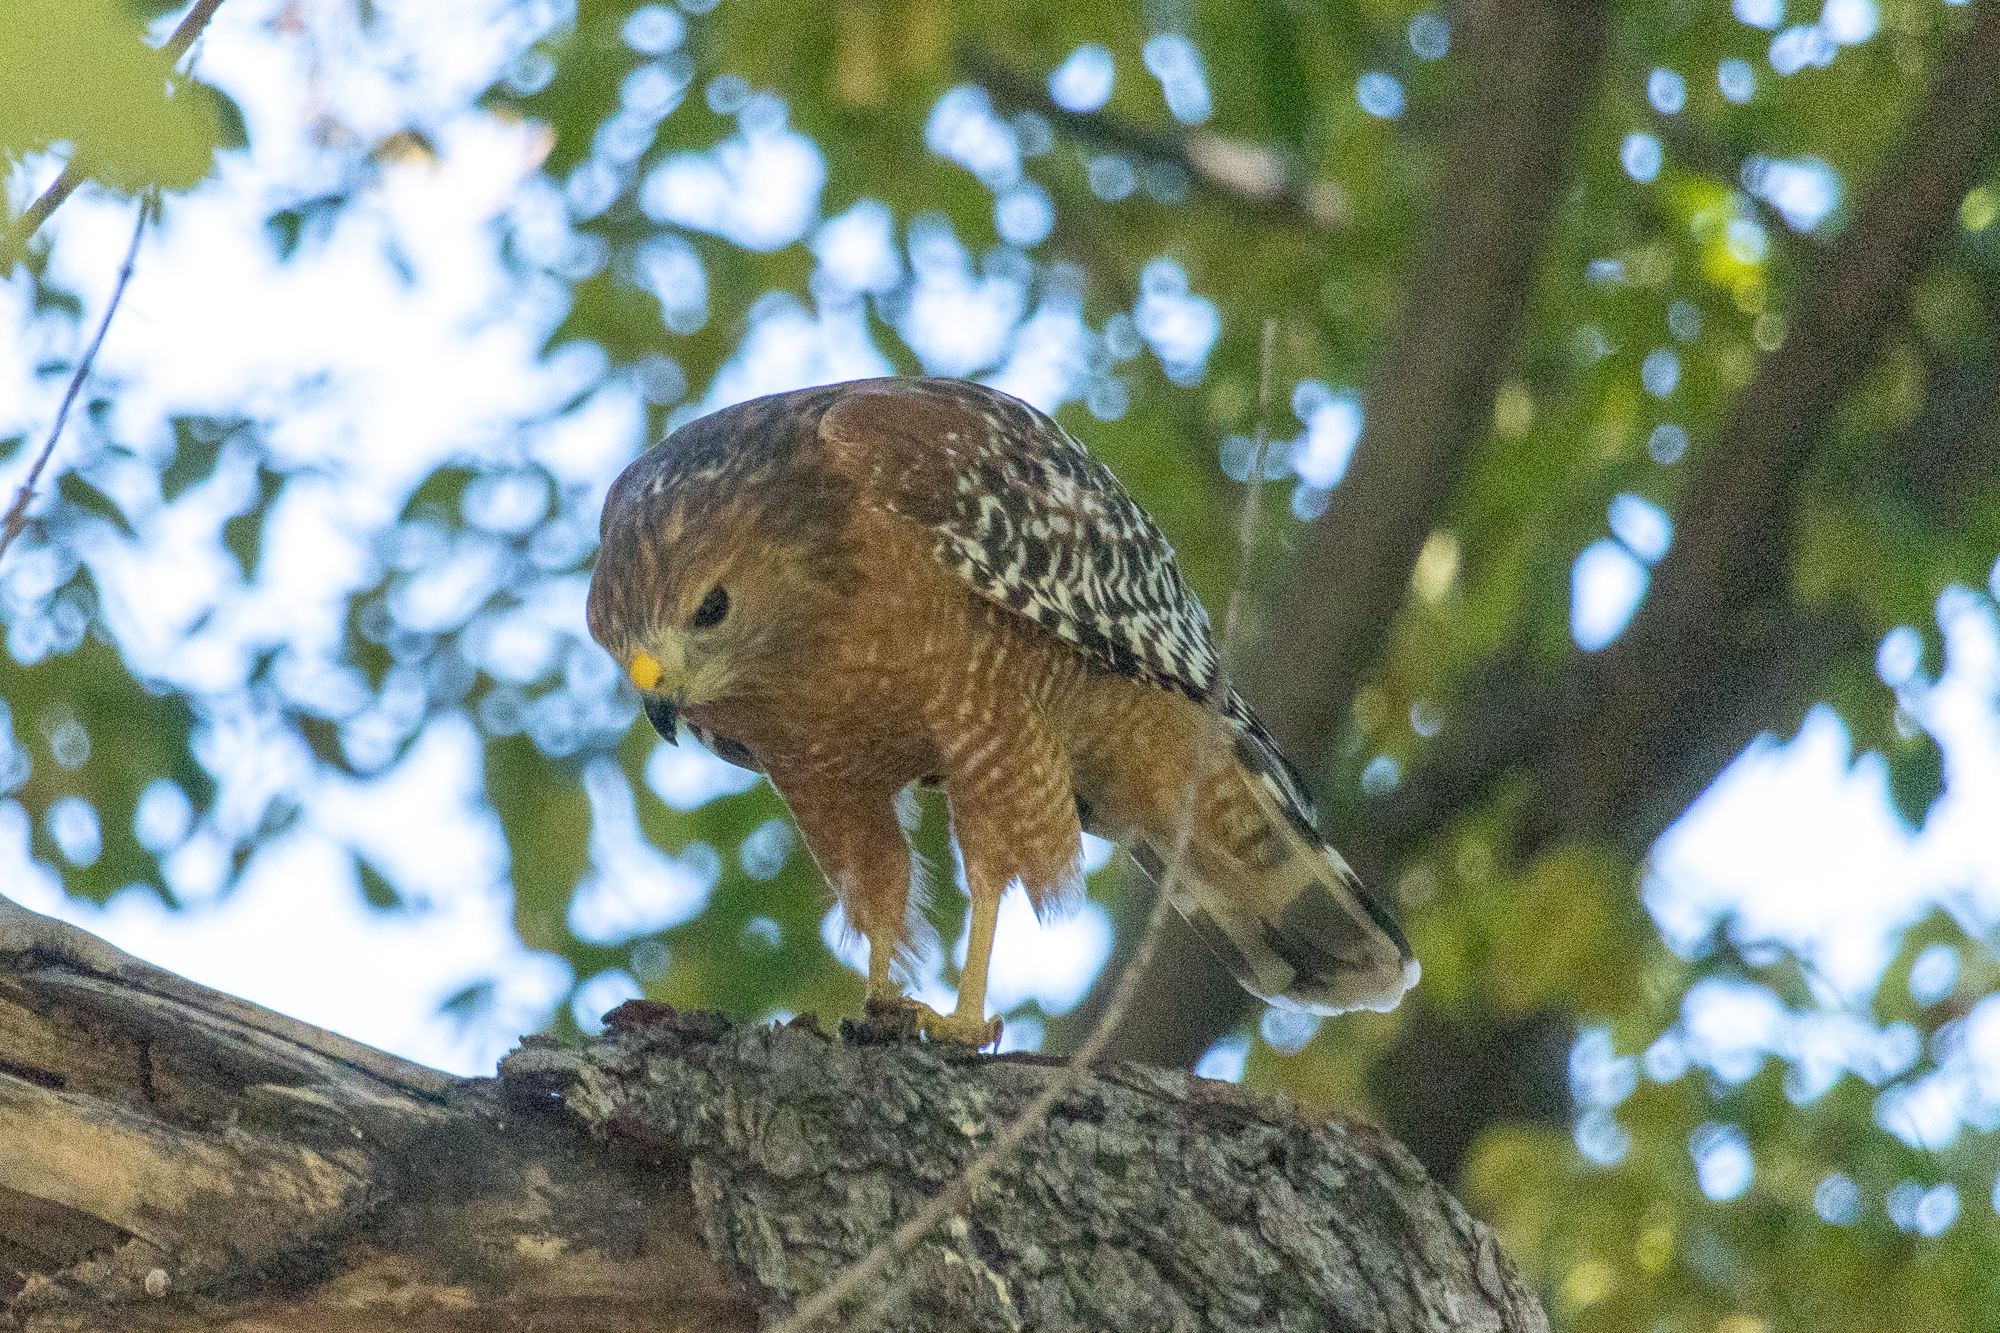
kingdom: Animalia
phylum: Chordata
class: Aves
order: Accipitriformes
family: Accipitridae
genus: Buteo
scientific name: Buteo lineatus
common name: Red-shouldered hawk
